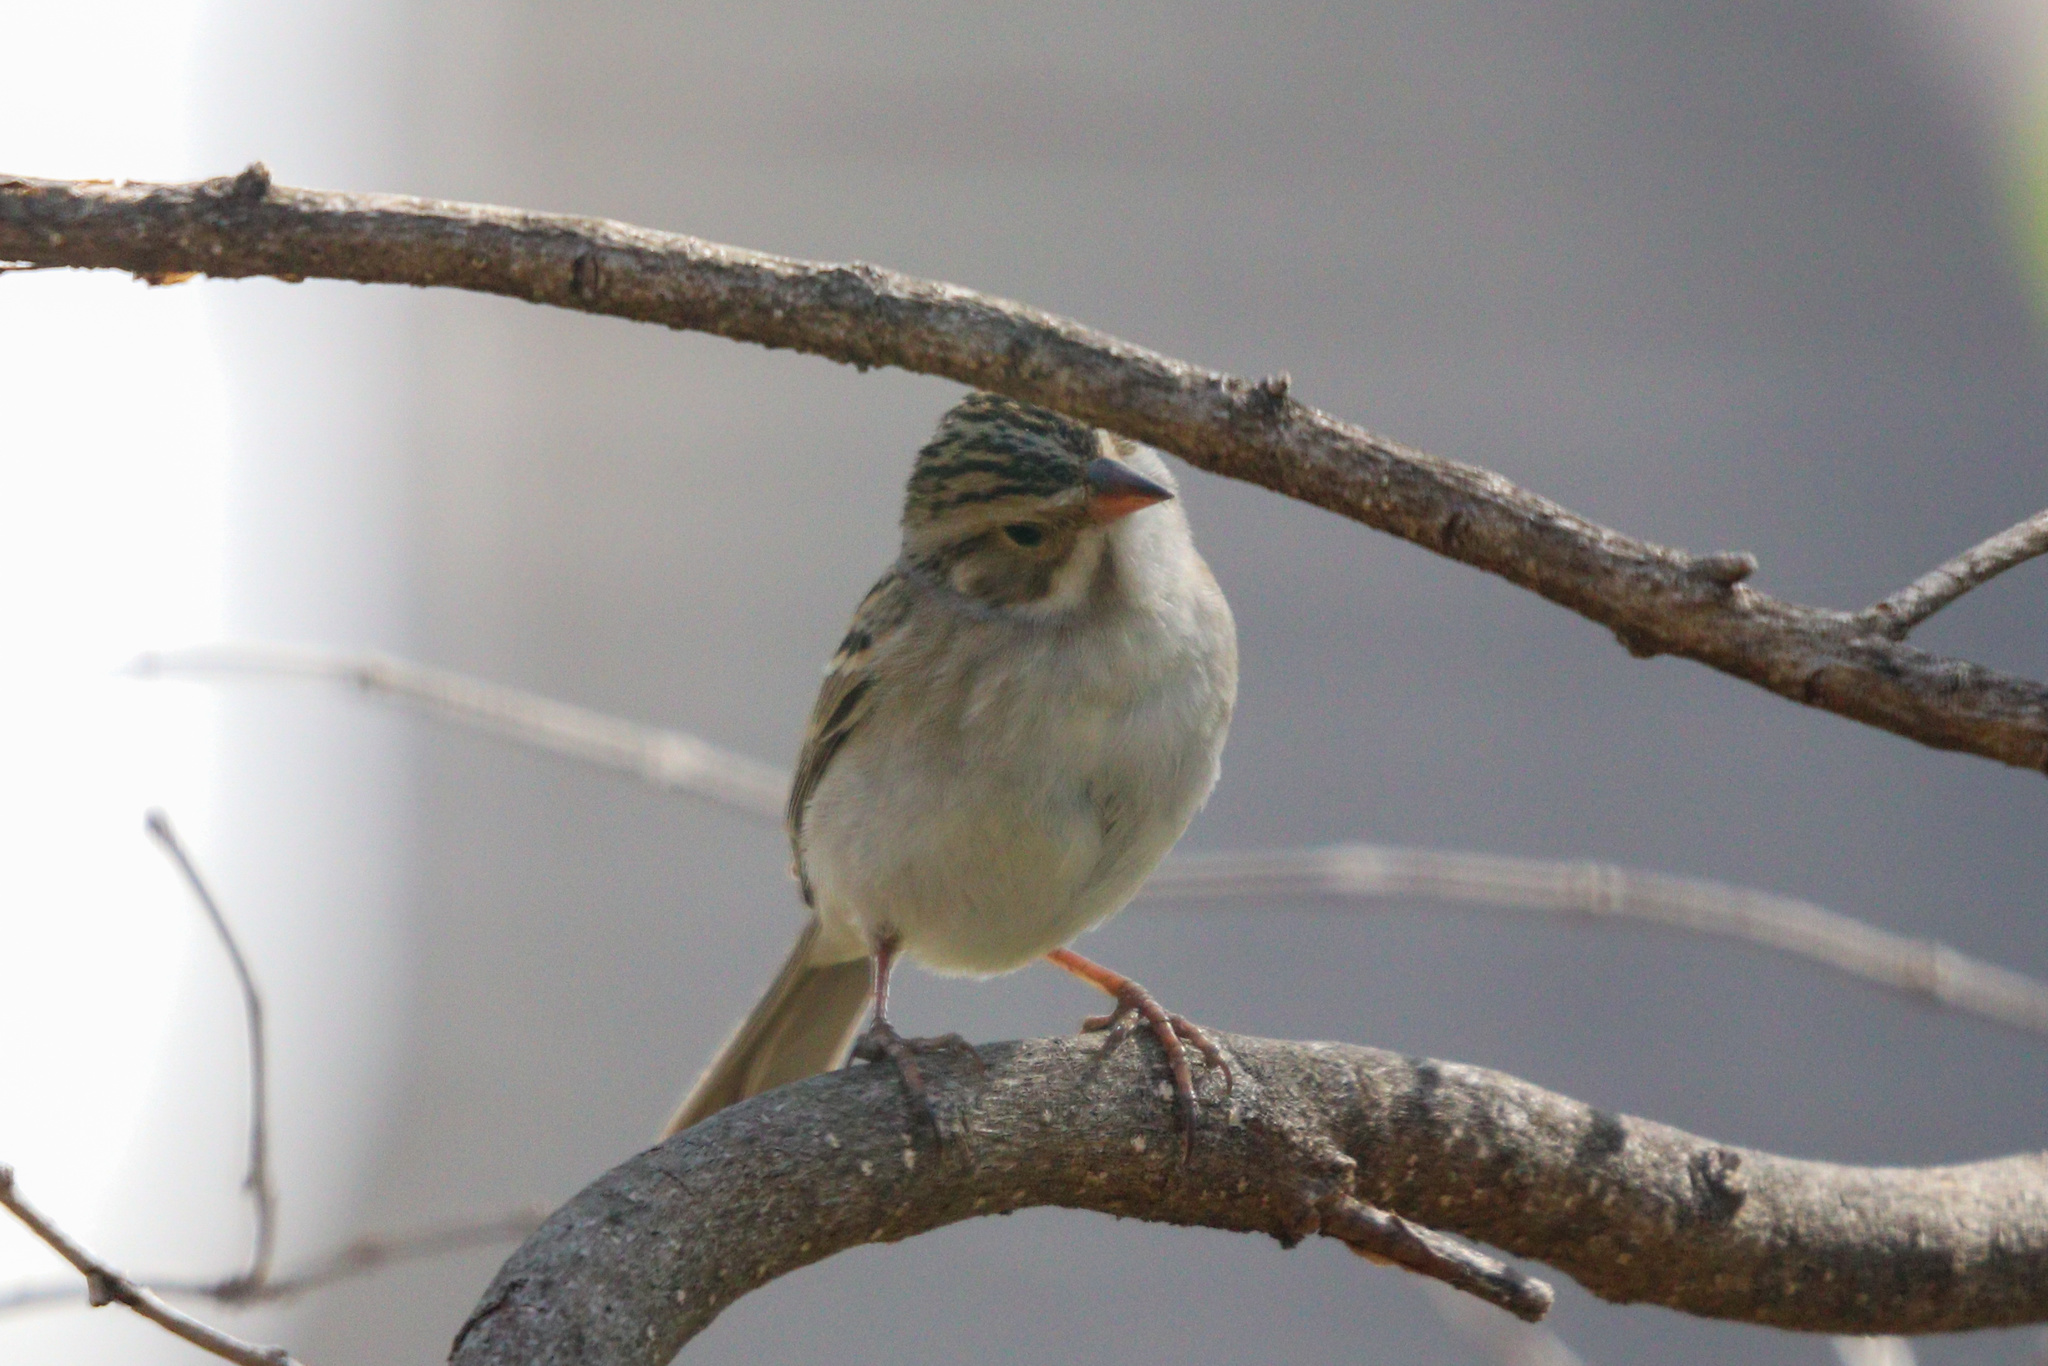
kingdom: Animalia
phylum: Chordata
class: Aves
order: Passeriformes
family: Passerellidae
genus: Spizella
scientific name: Spizella pallida
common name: Clay-colored sparrow
